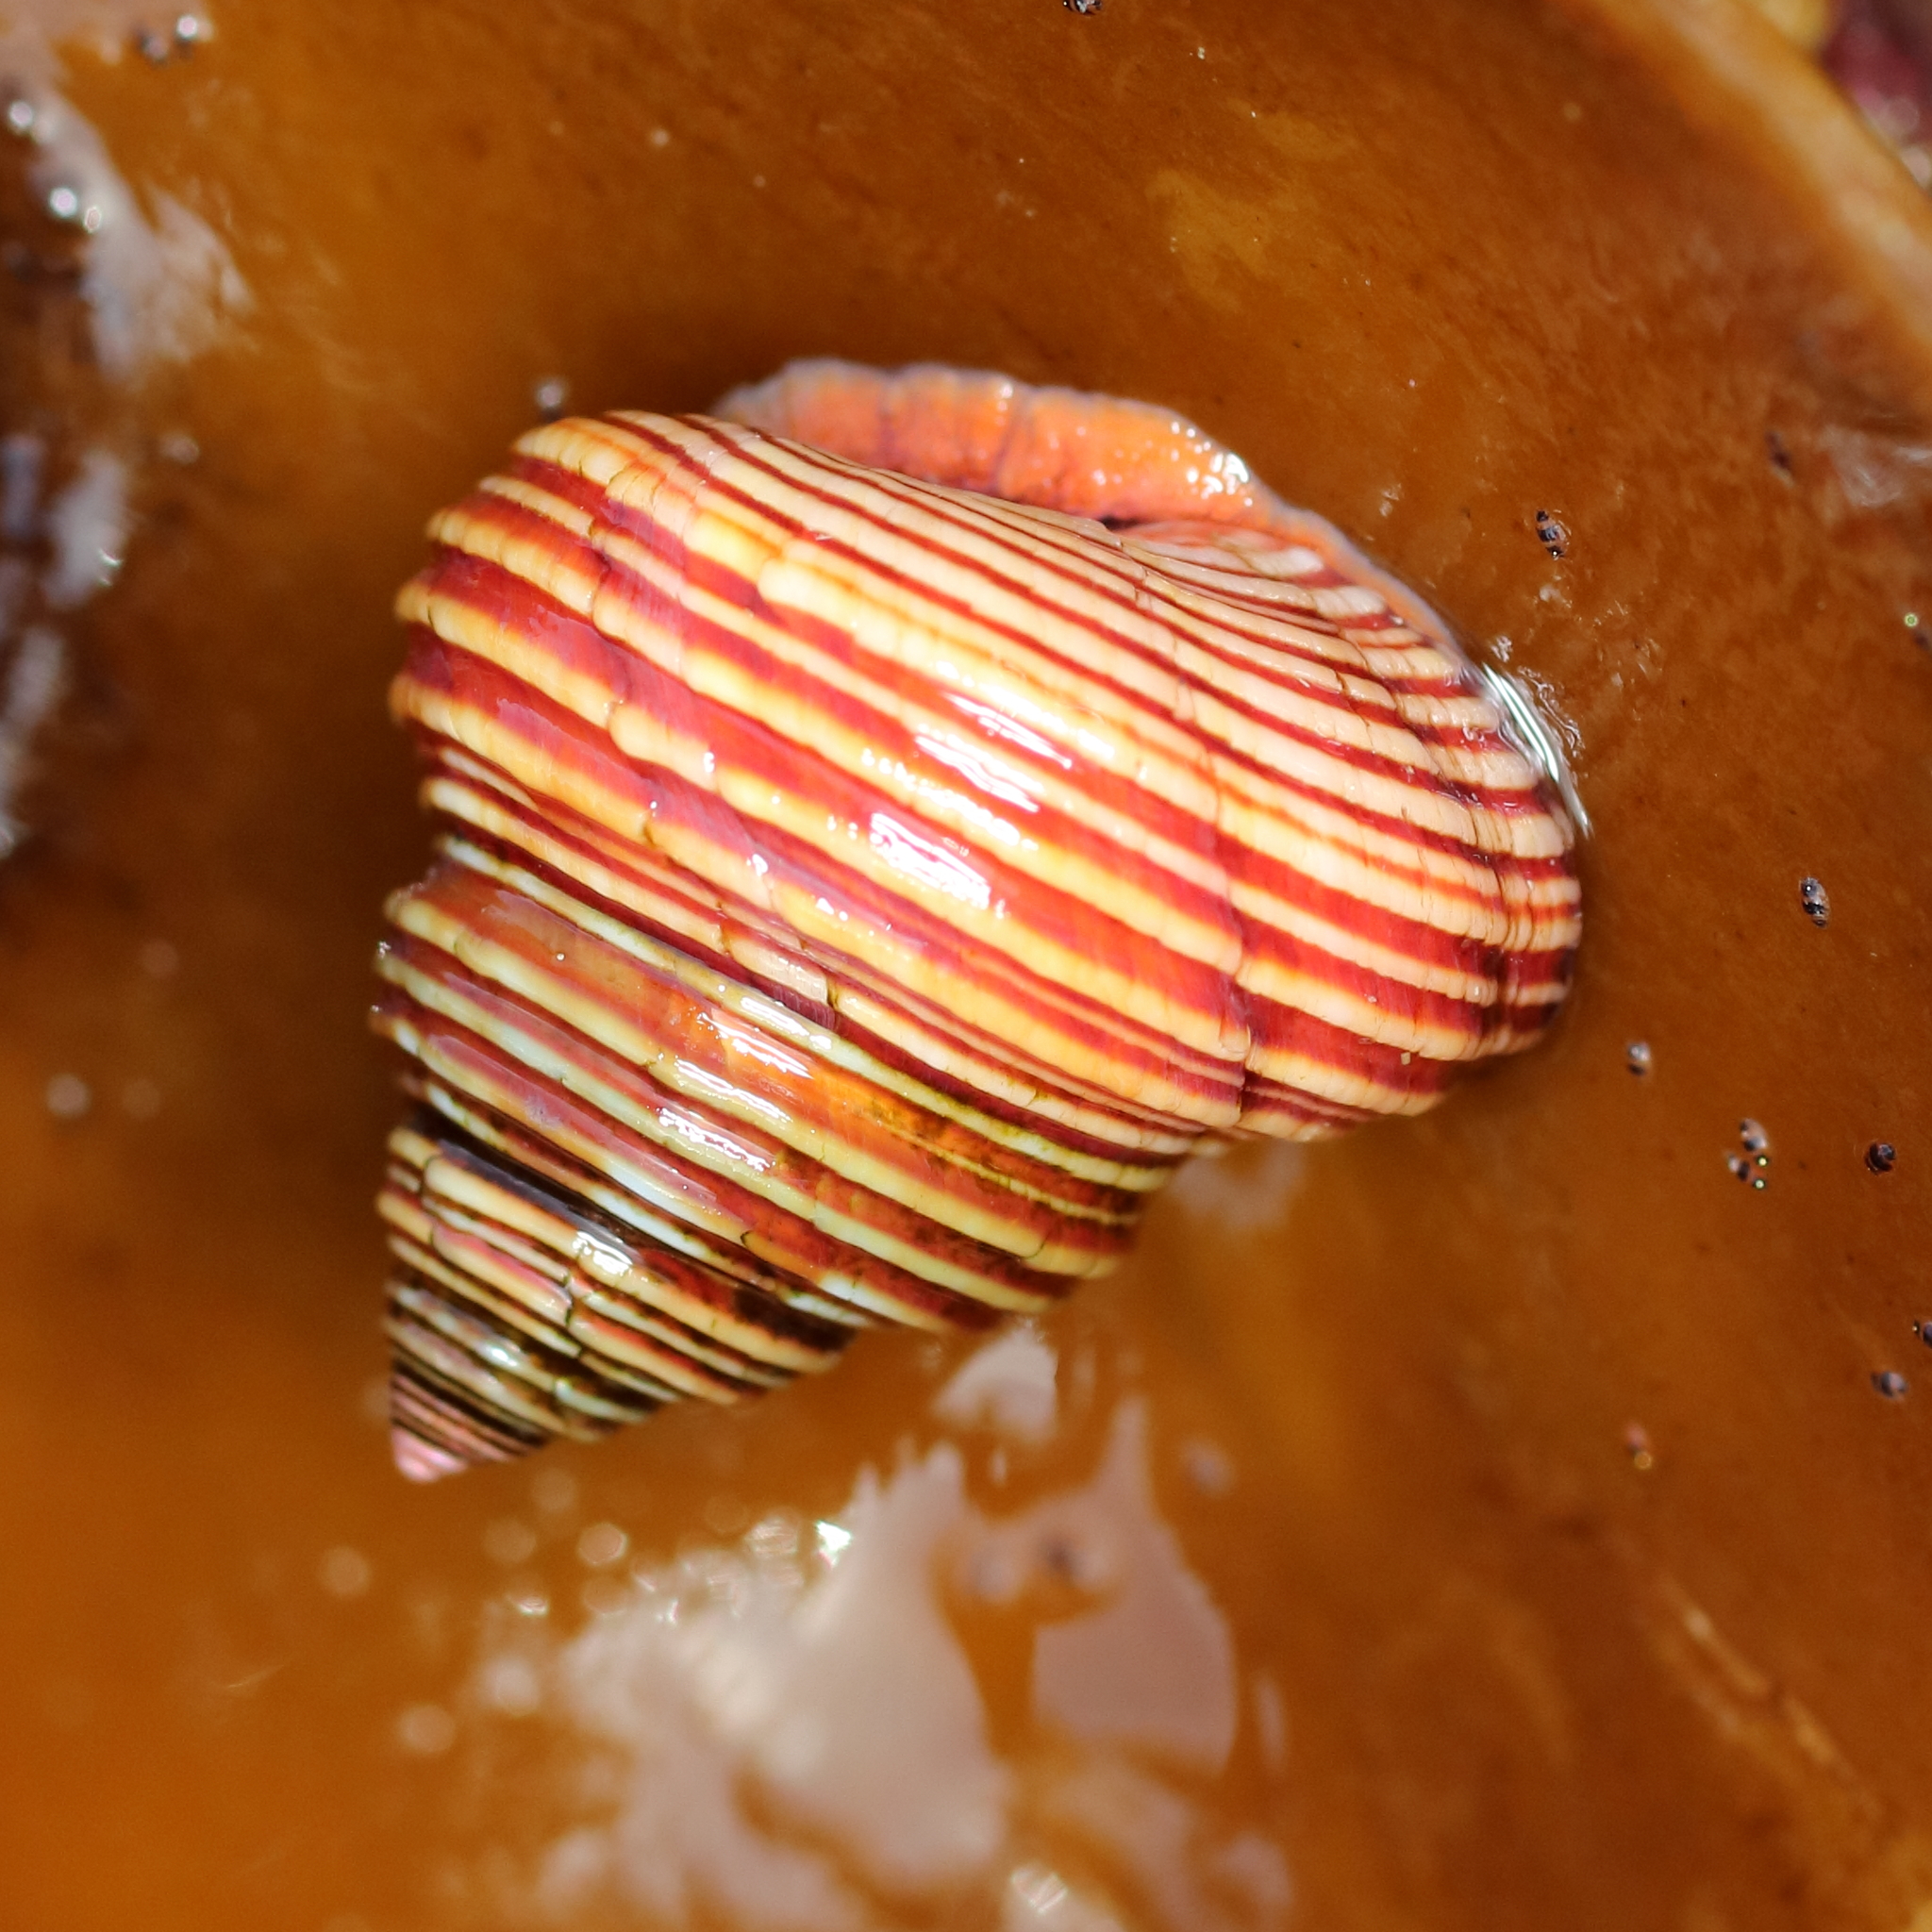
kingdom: Animalia
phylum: Mollusca
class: Gastropoda
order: Trochida
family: Calliostomatidae
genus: Calliostoma
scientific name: Calliostoma ligatum
